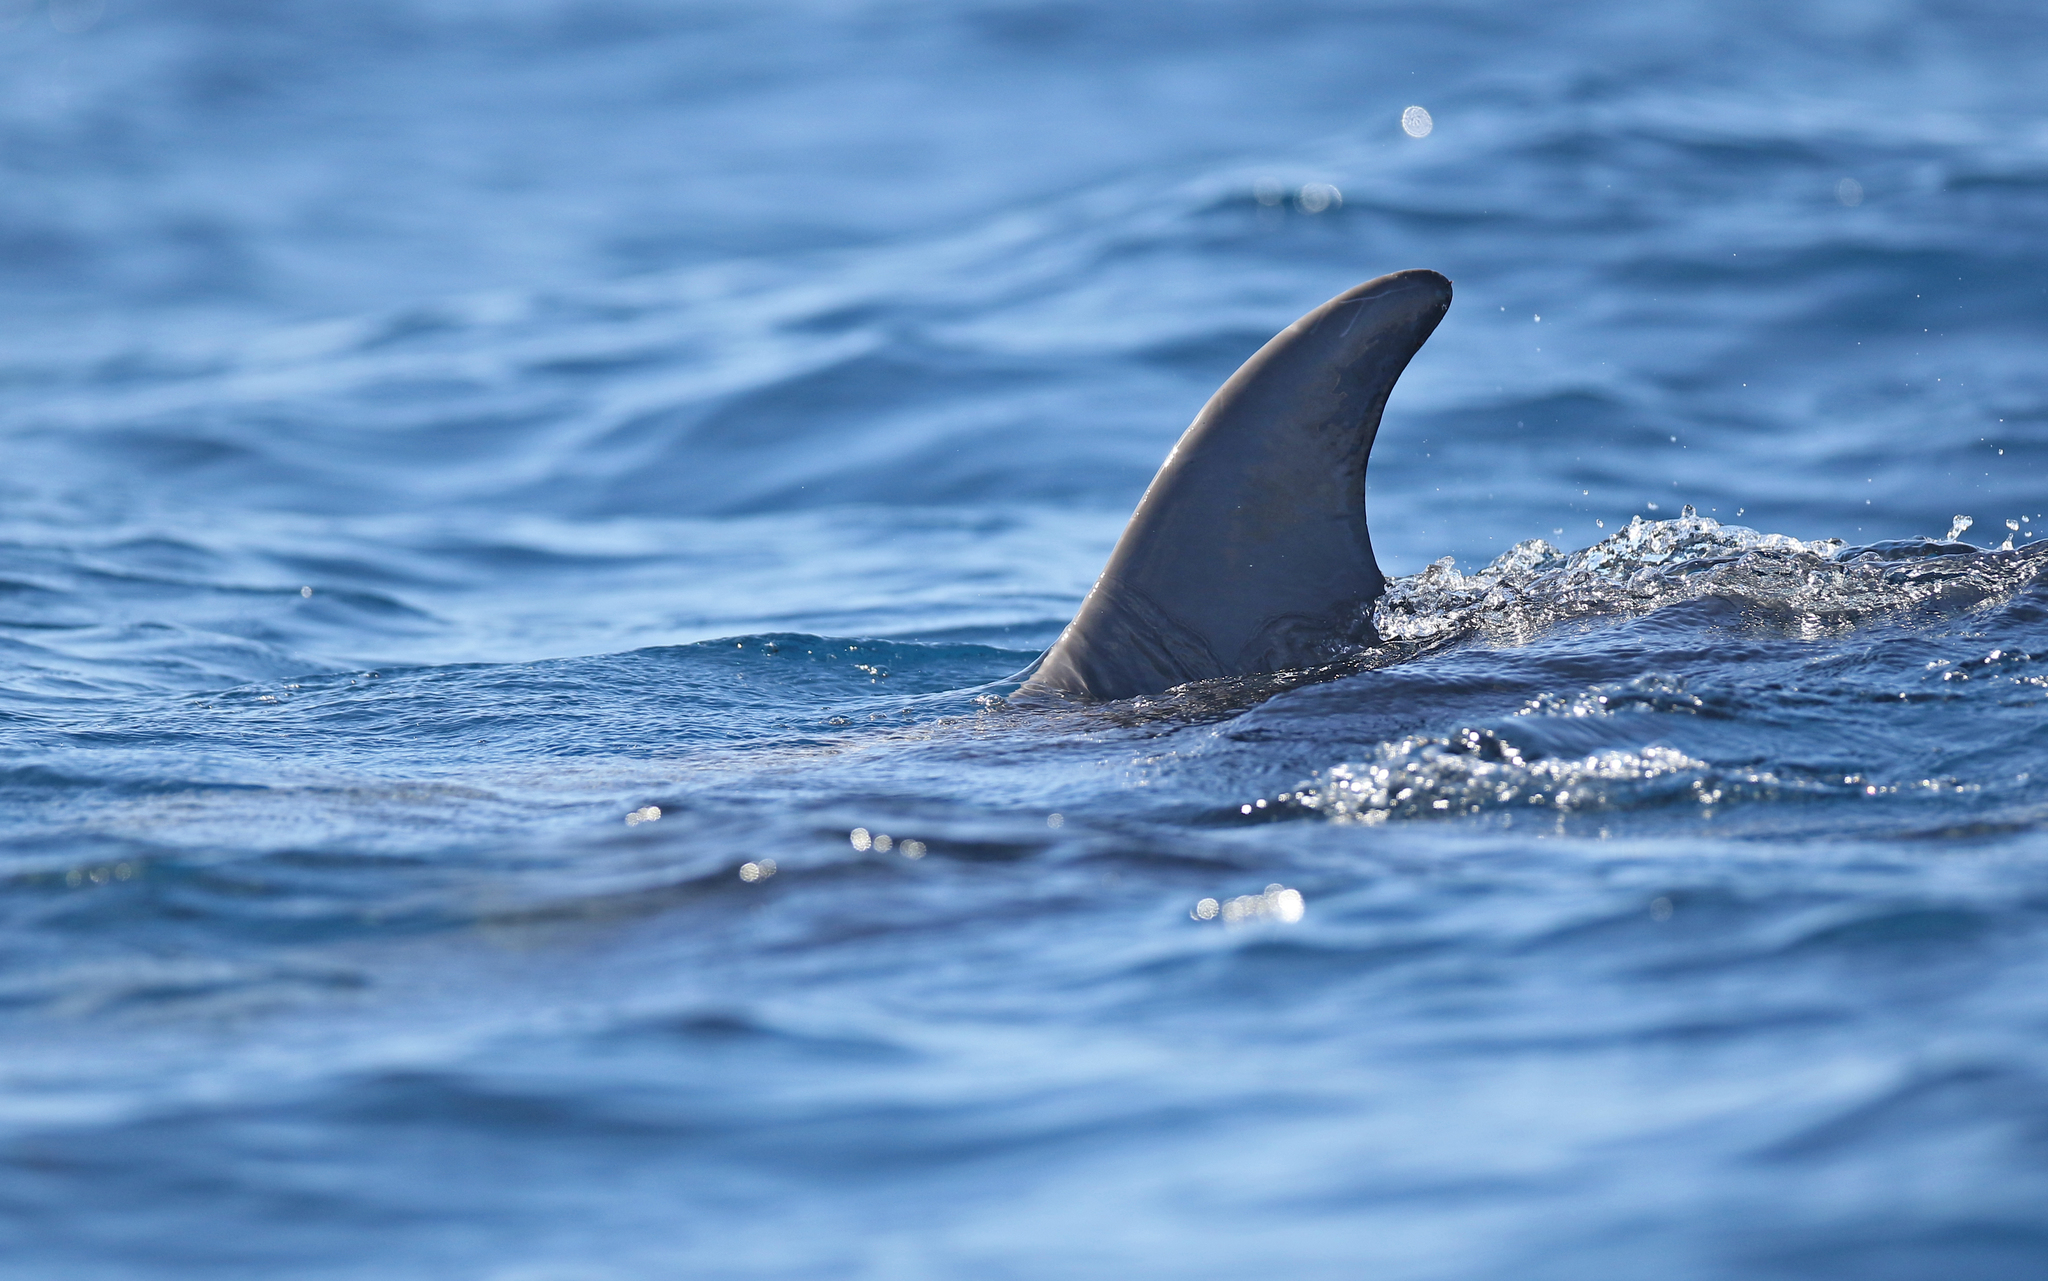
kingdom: Animalia
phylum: Chordata
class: Mammalia
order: Cetacea
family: Delphinidae
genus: Tursiops
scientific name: Tursiops truncatus
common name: Bottlenose dolphin
